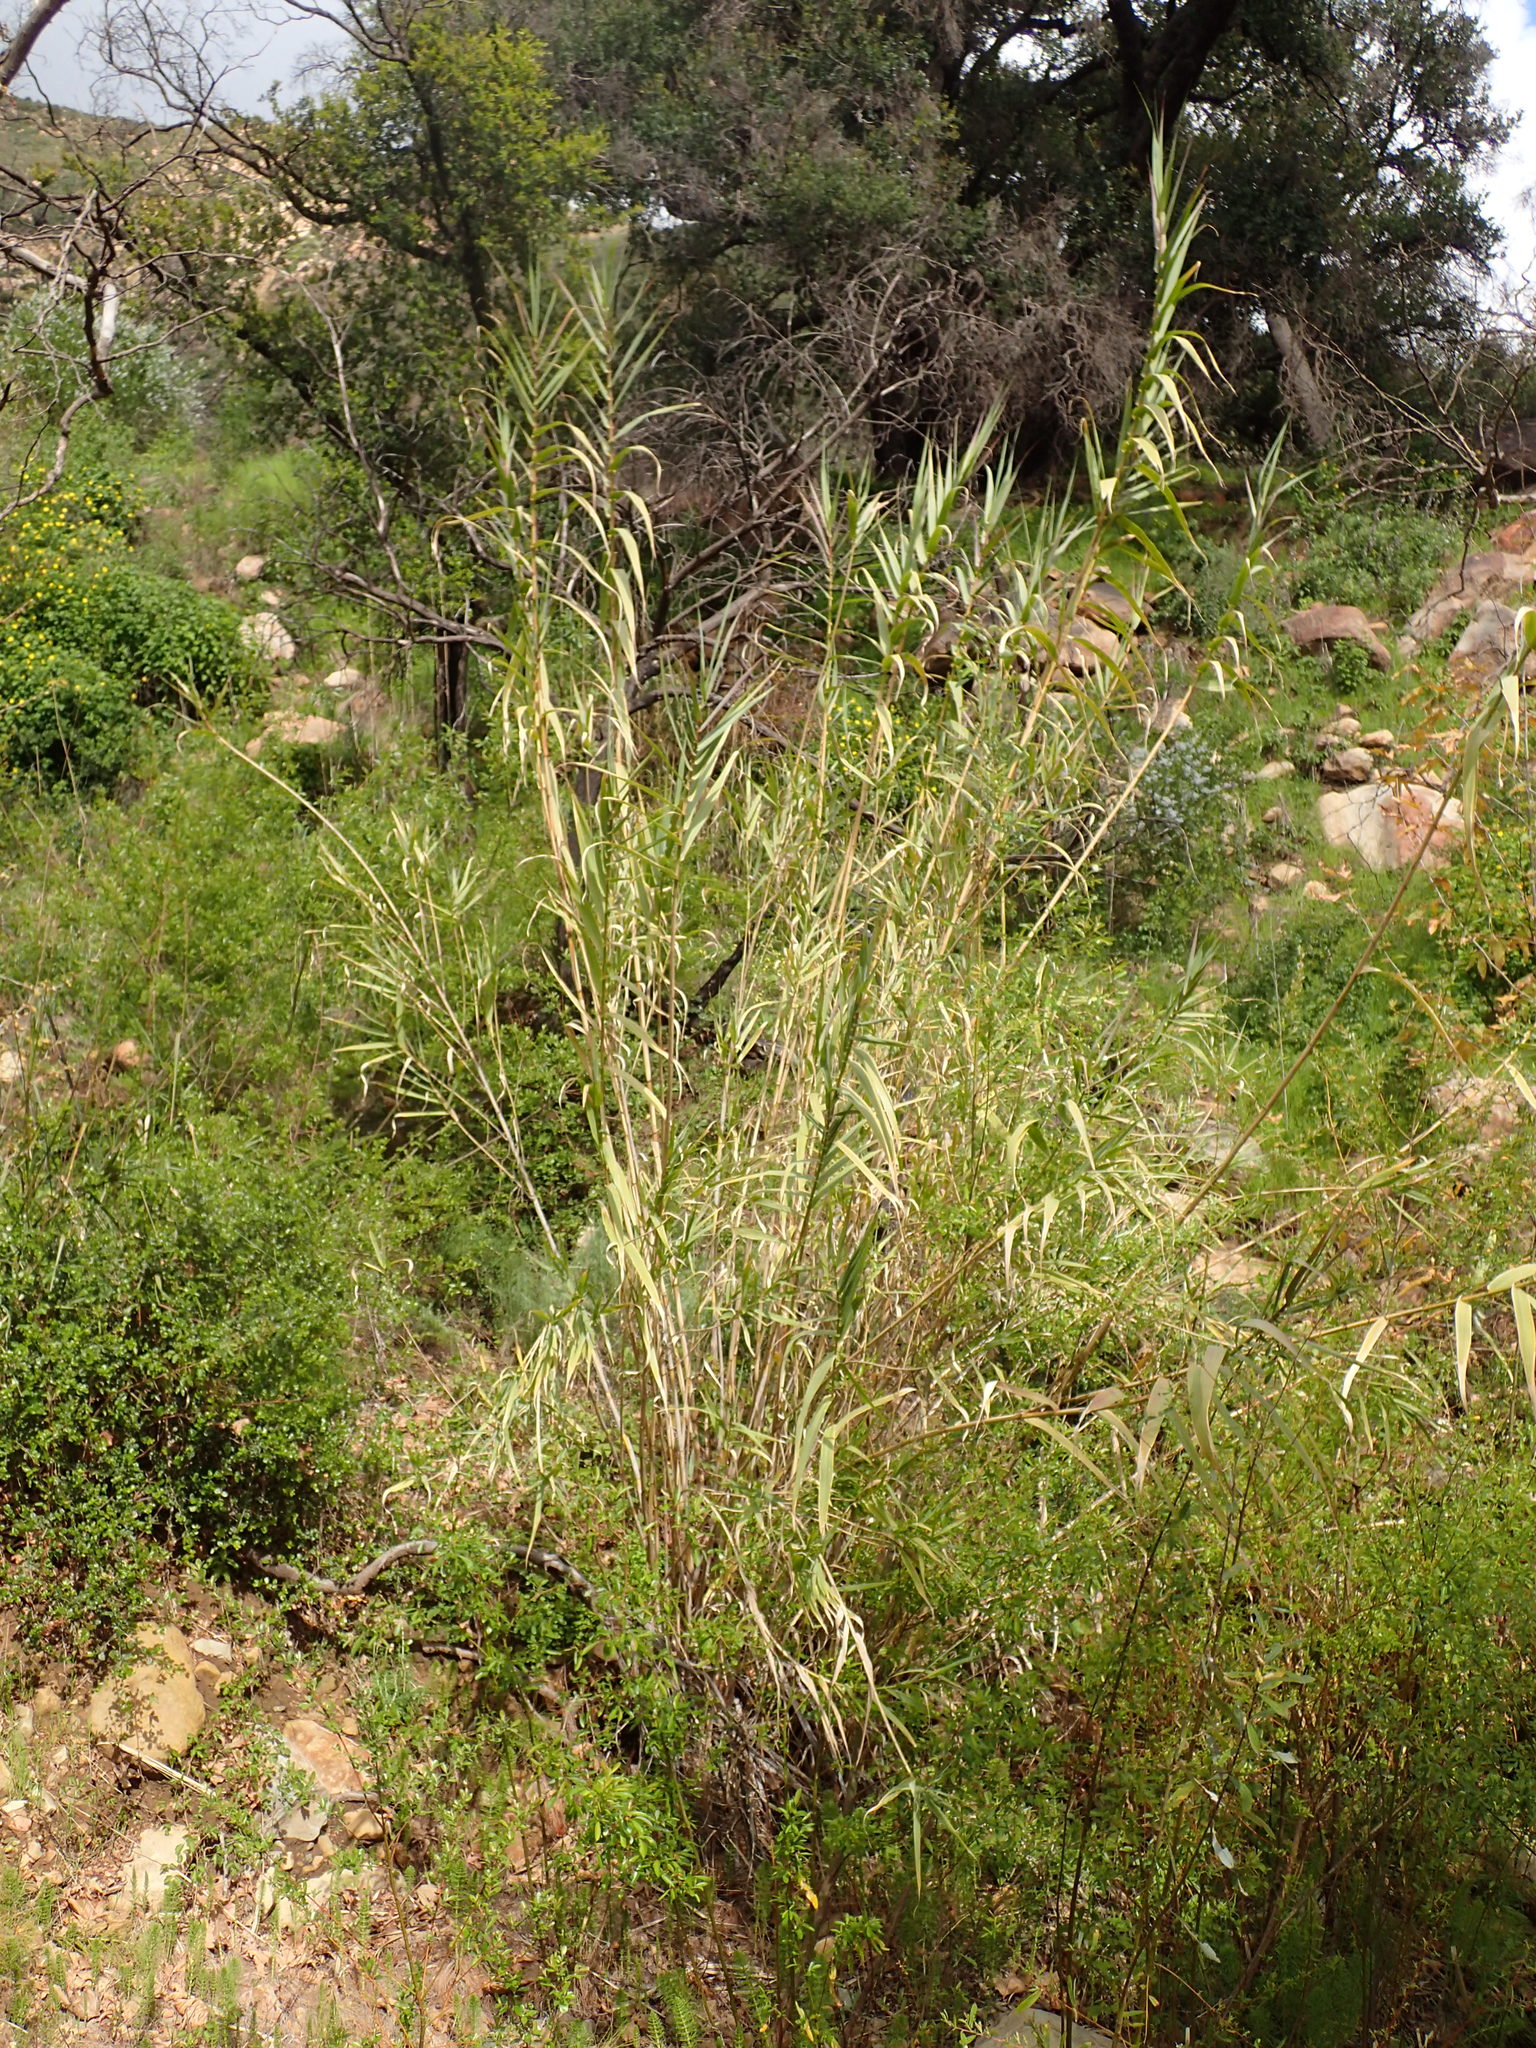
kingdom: Plantae
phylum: Tracheophyta
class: Liliopsida
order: Poales
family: Poaceae
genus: Arundo
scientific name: Arundo donax
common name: Giant reed
